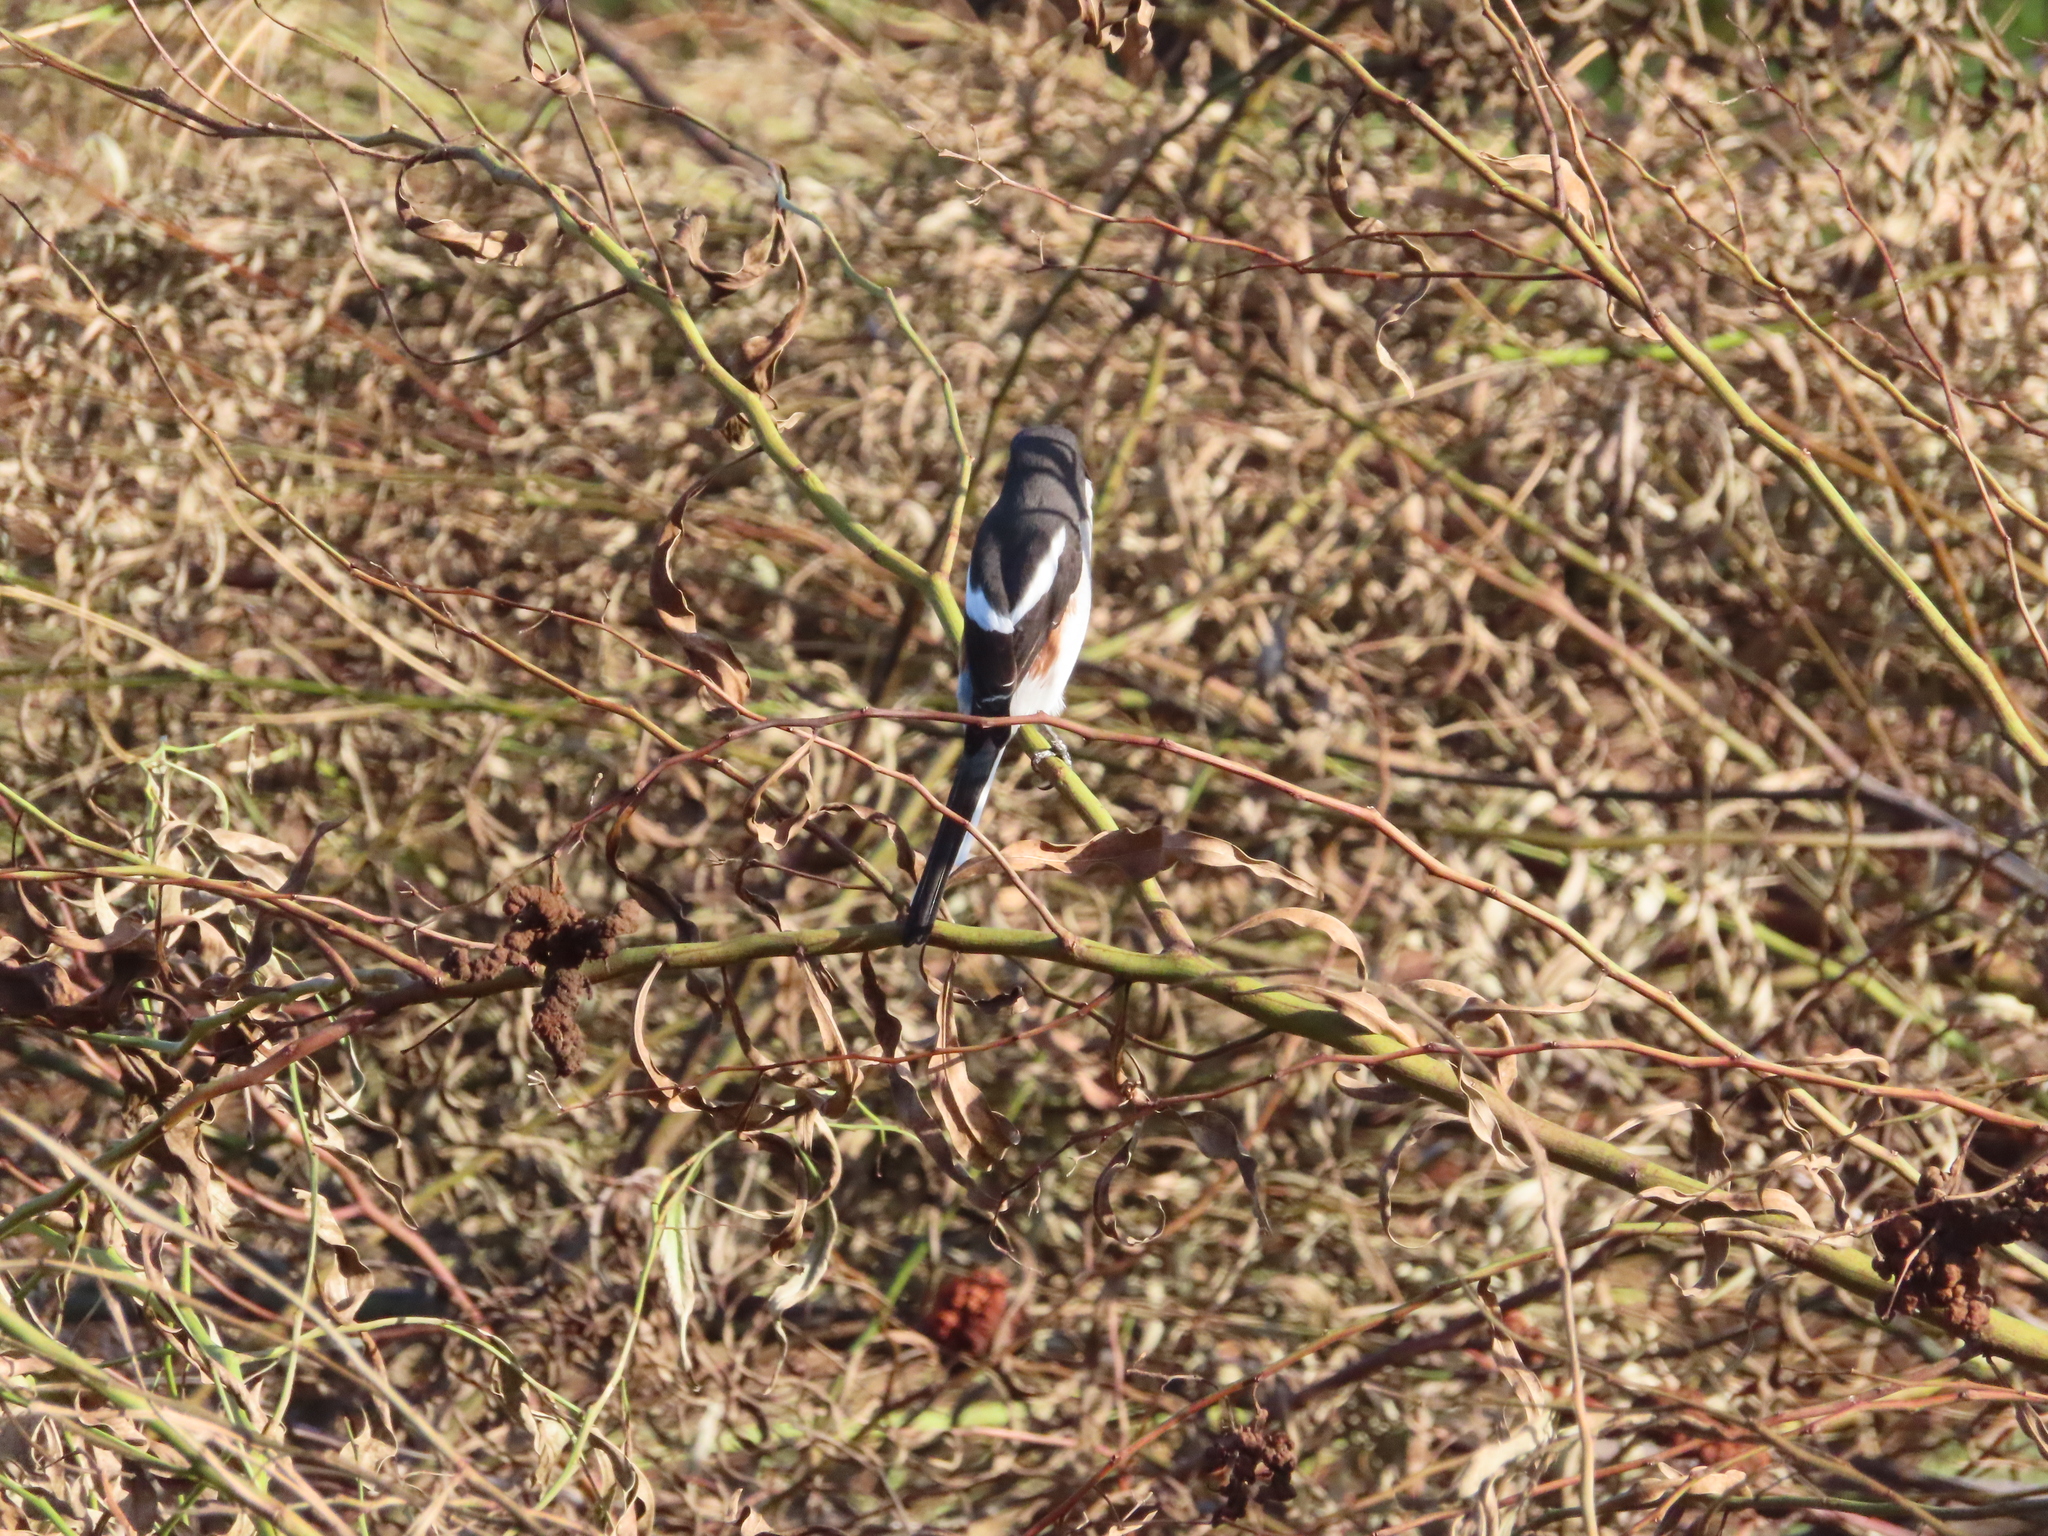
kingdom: Animalia
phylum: Chordata
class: Aves
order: Passeriformes
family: Laniidae
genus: Lanius
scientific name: Lanius collaris
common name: Southern fiscal
